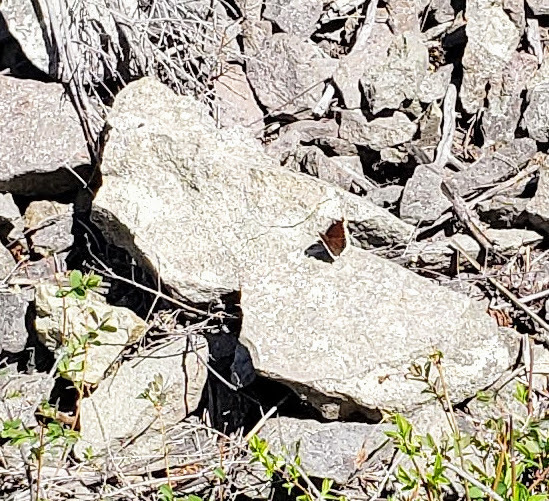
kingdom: Animalia
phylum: Arthropoda
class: Insecta
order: Lepidoptera
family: Nymphalidae
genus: Nymphalis
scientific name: Nymphalis antiopa
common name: Camberwell beauty
